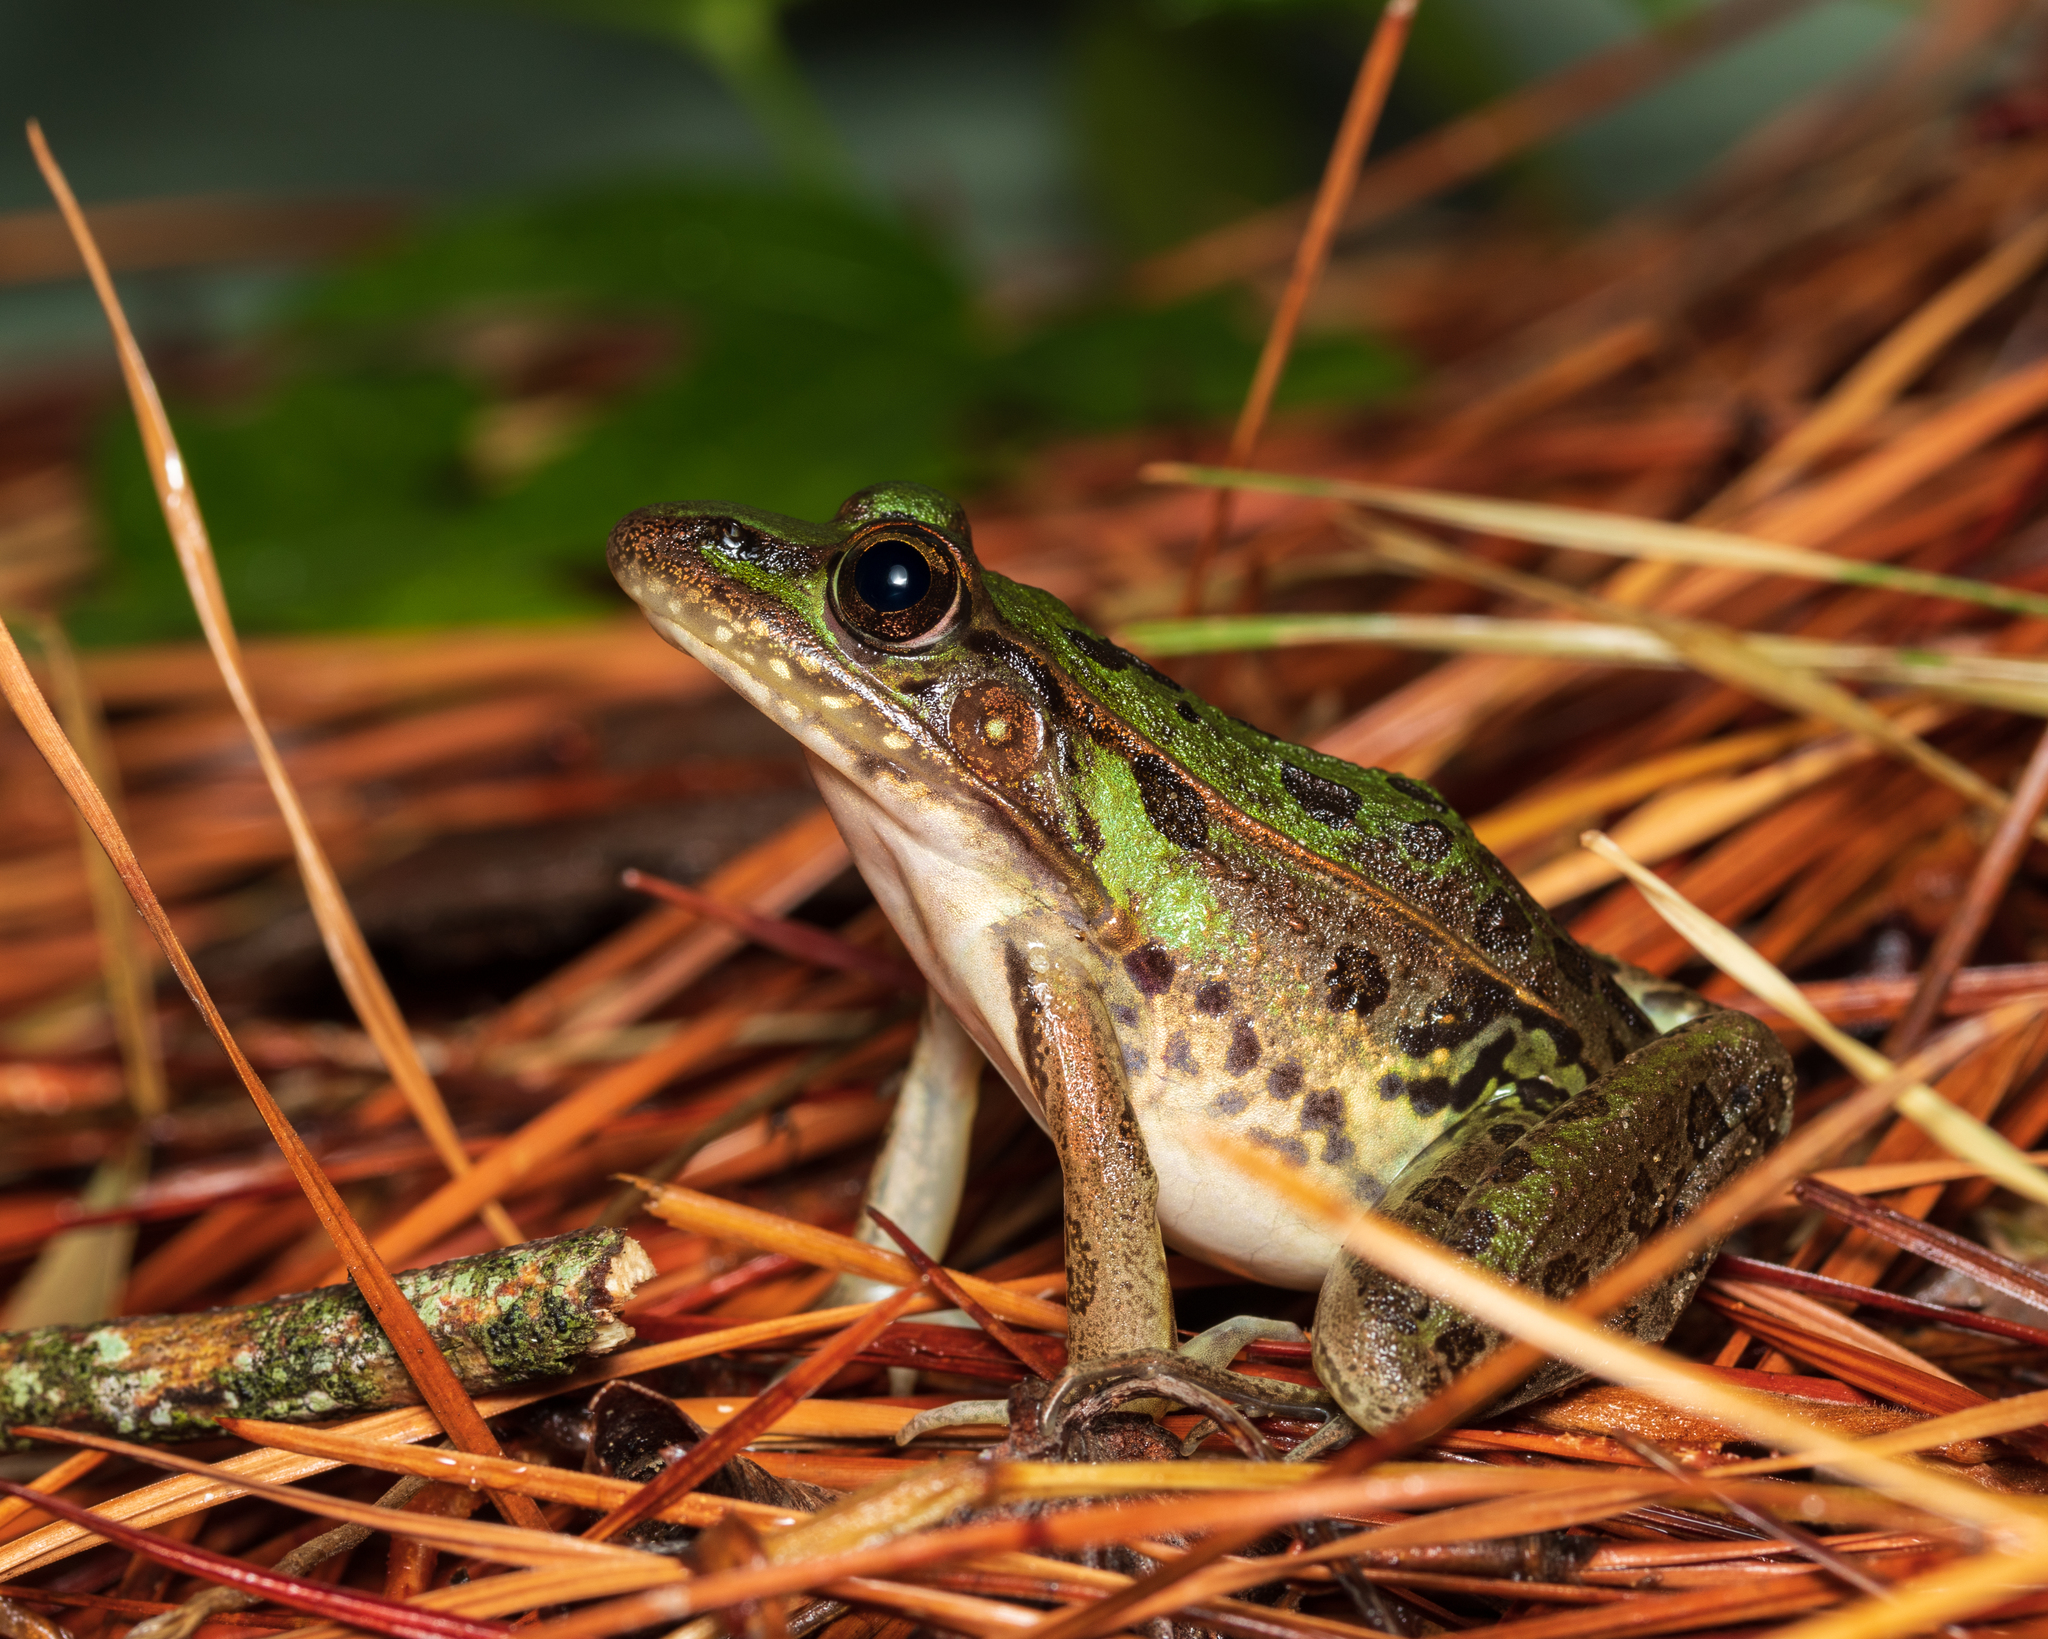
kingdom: Animalia
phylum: Chordata
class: Amphibia
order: Anura
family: Ranidae
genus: Lithobates
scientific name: Lithobates sphenocephalus
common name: Southern leopard frog
